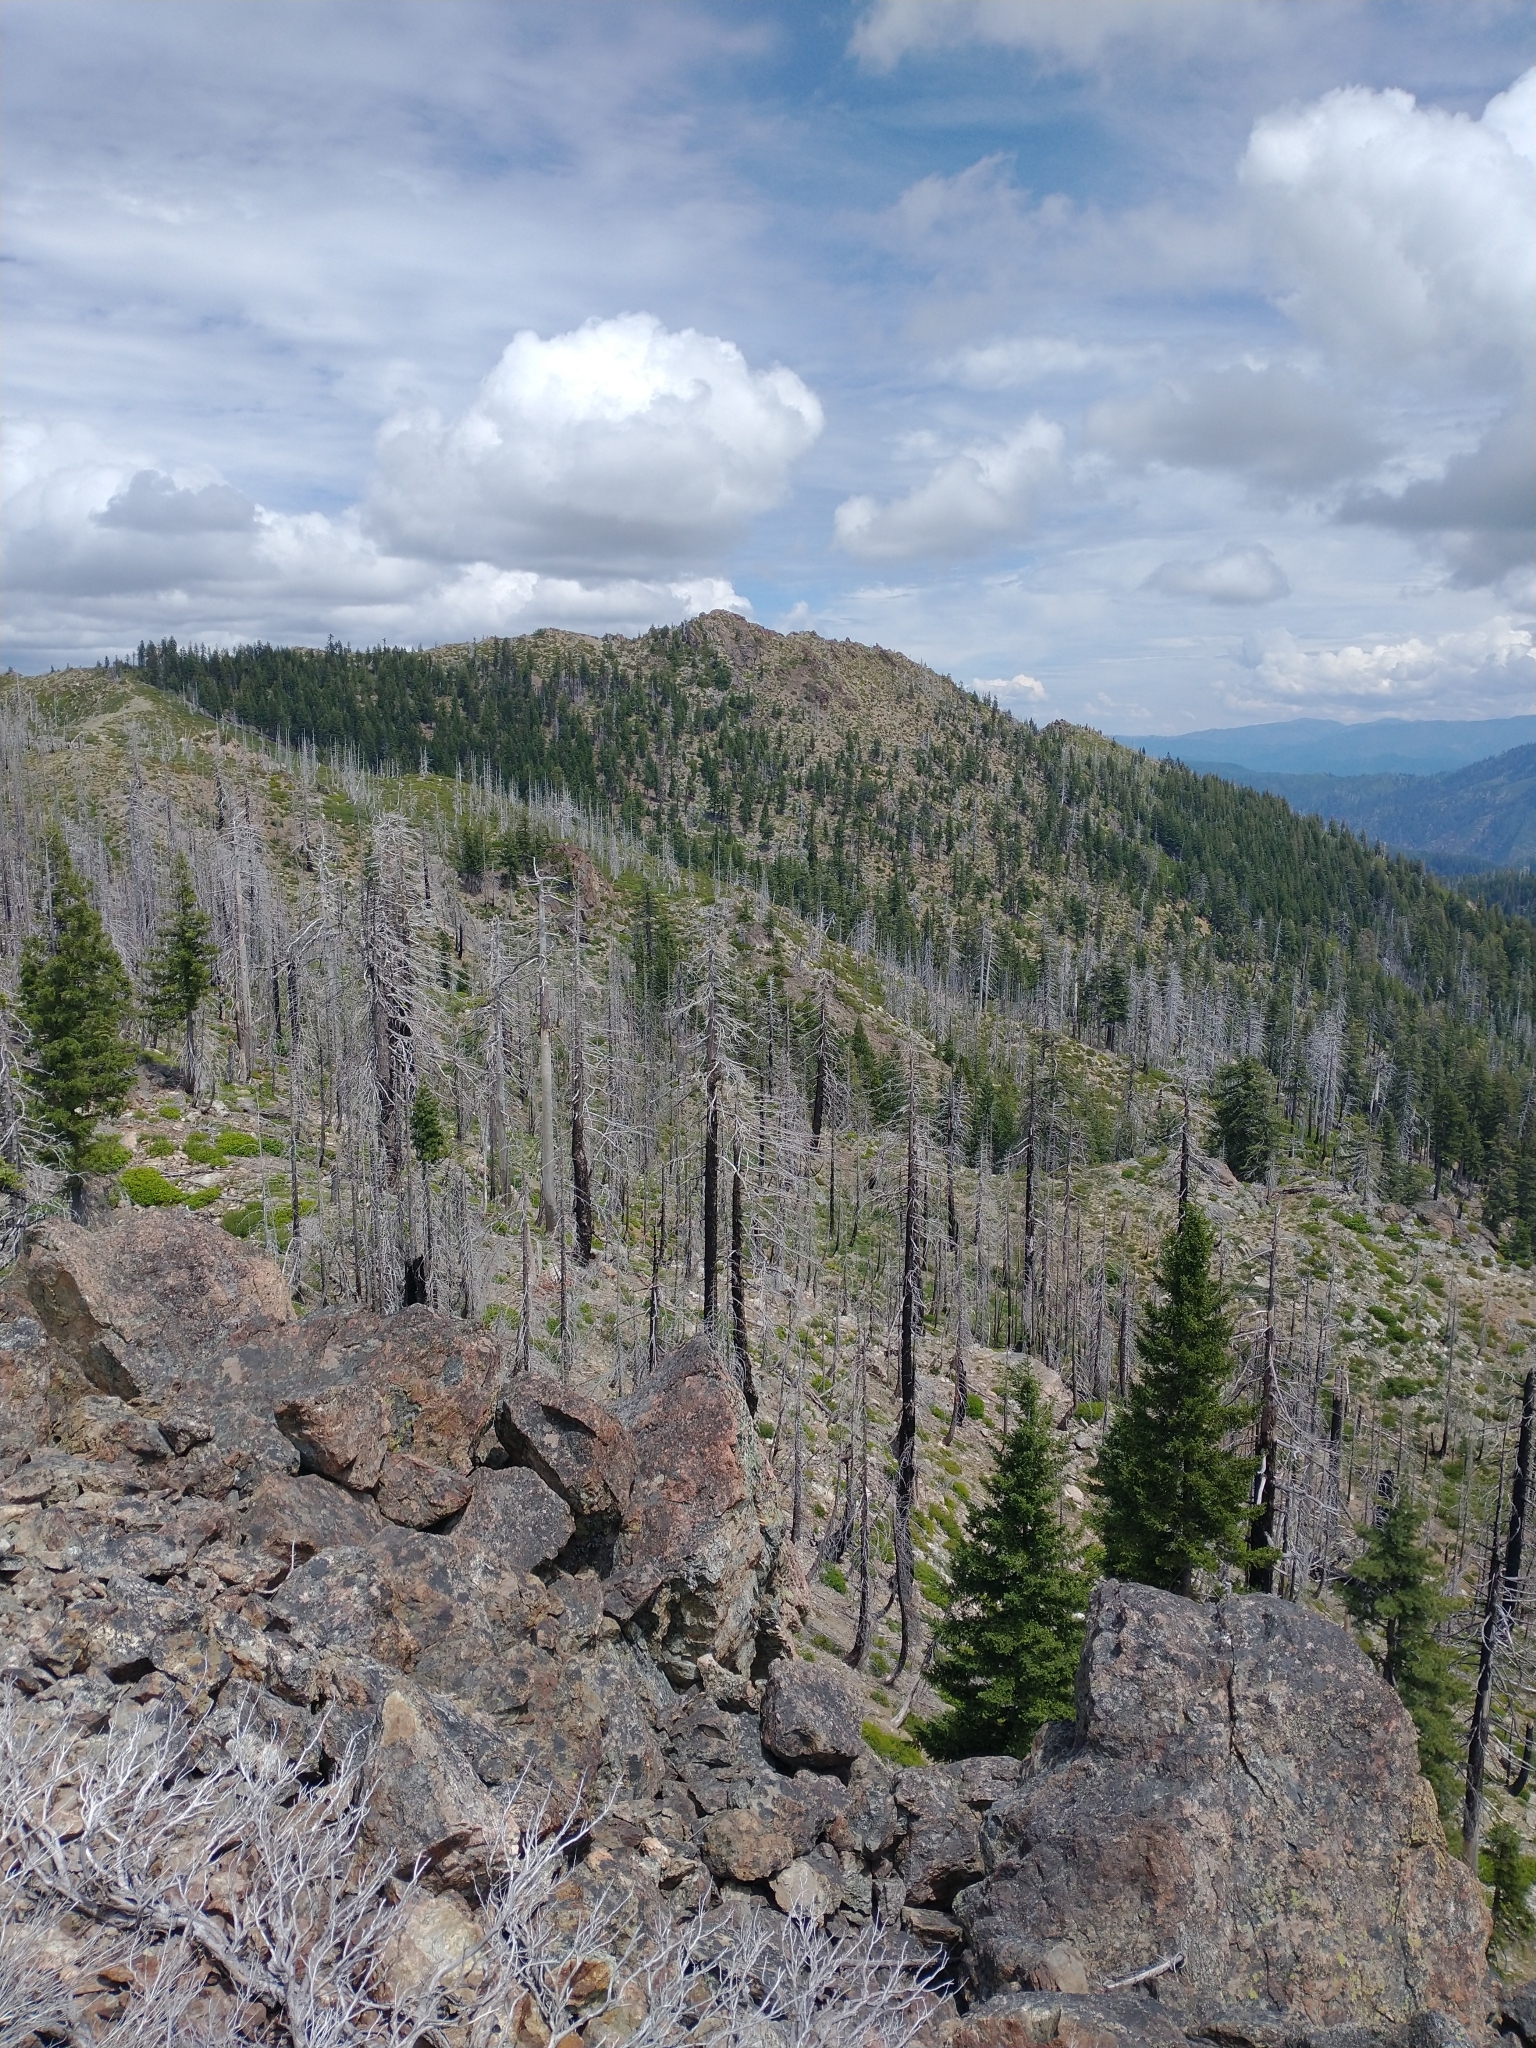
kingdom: Plantae
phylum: Tracheophyta
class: Pinopsida
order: Pinales
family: Pinaceae
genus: Pseudotsuga
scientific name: Pseudotsuga menziesii
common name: Douglas fir
